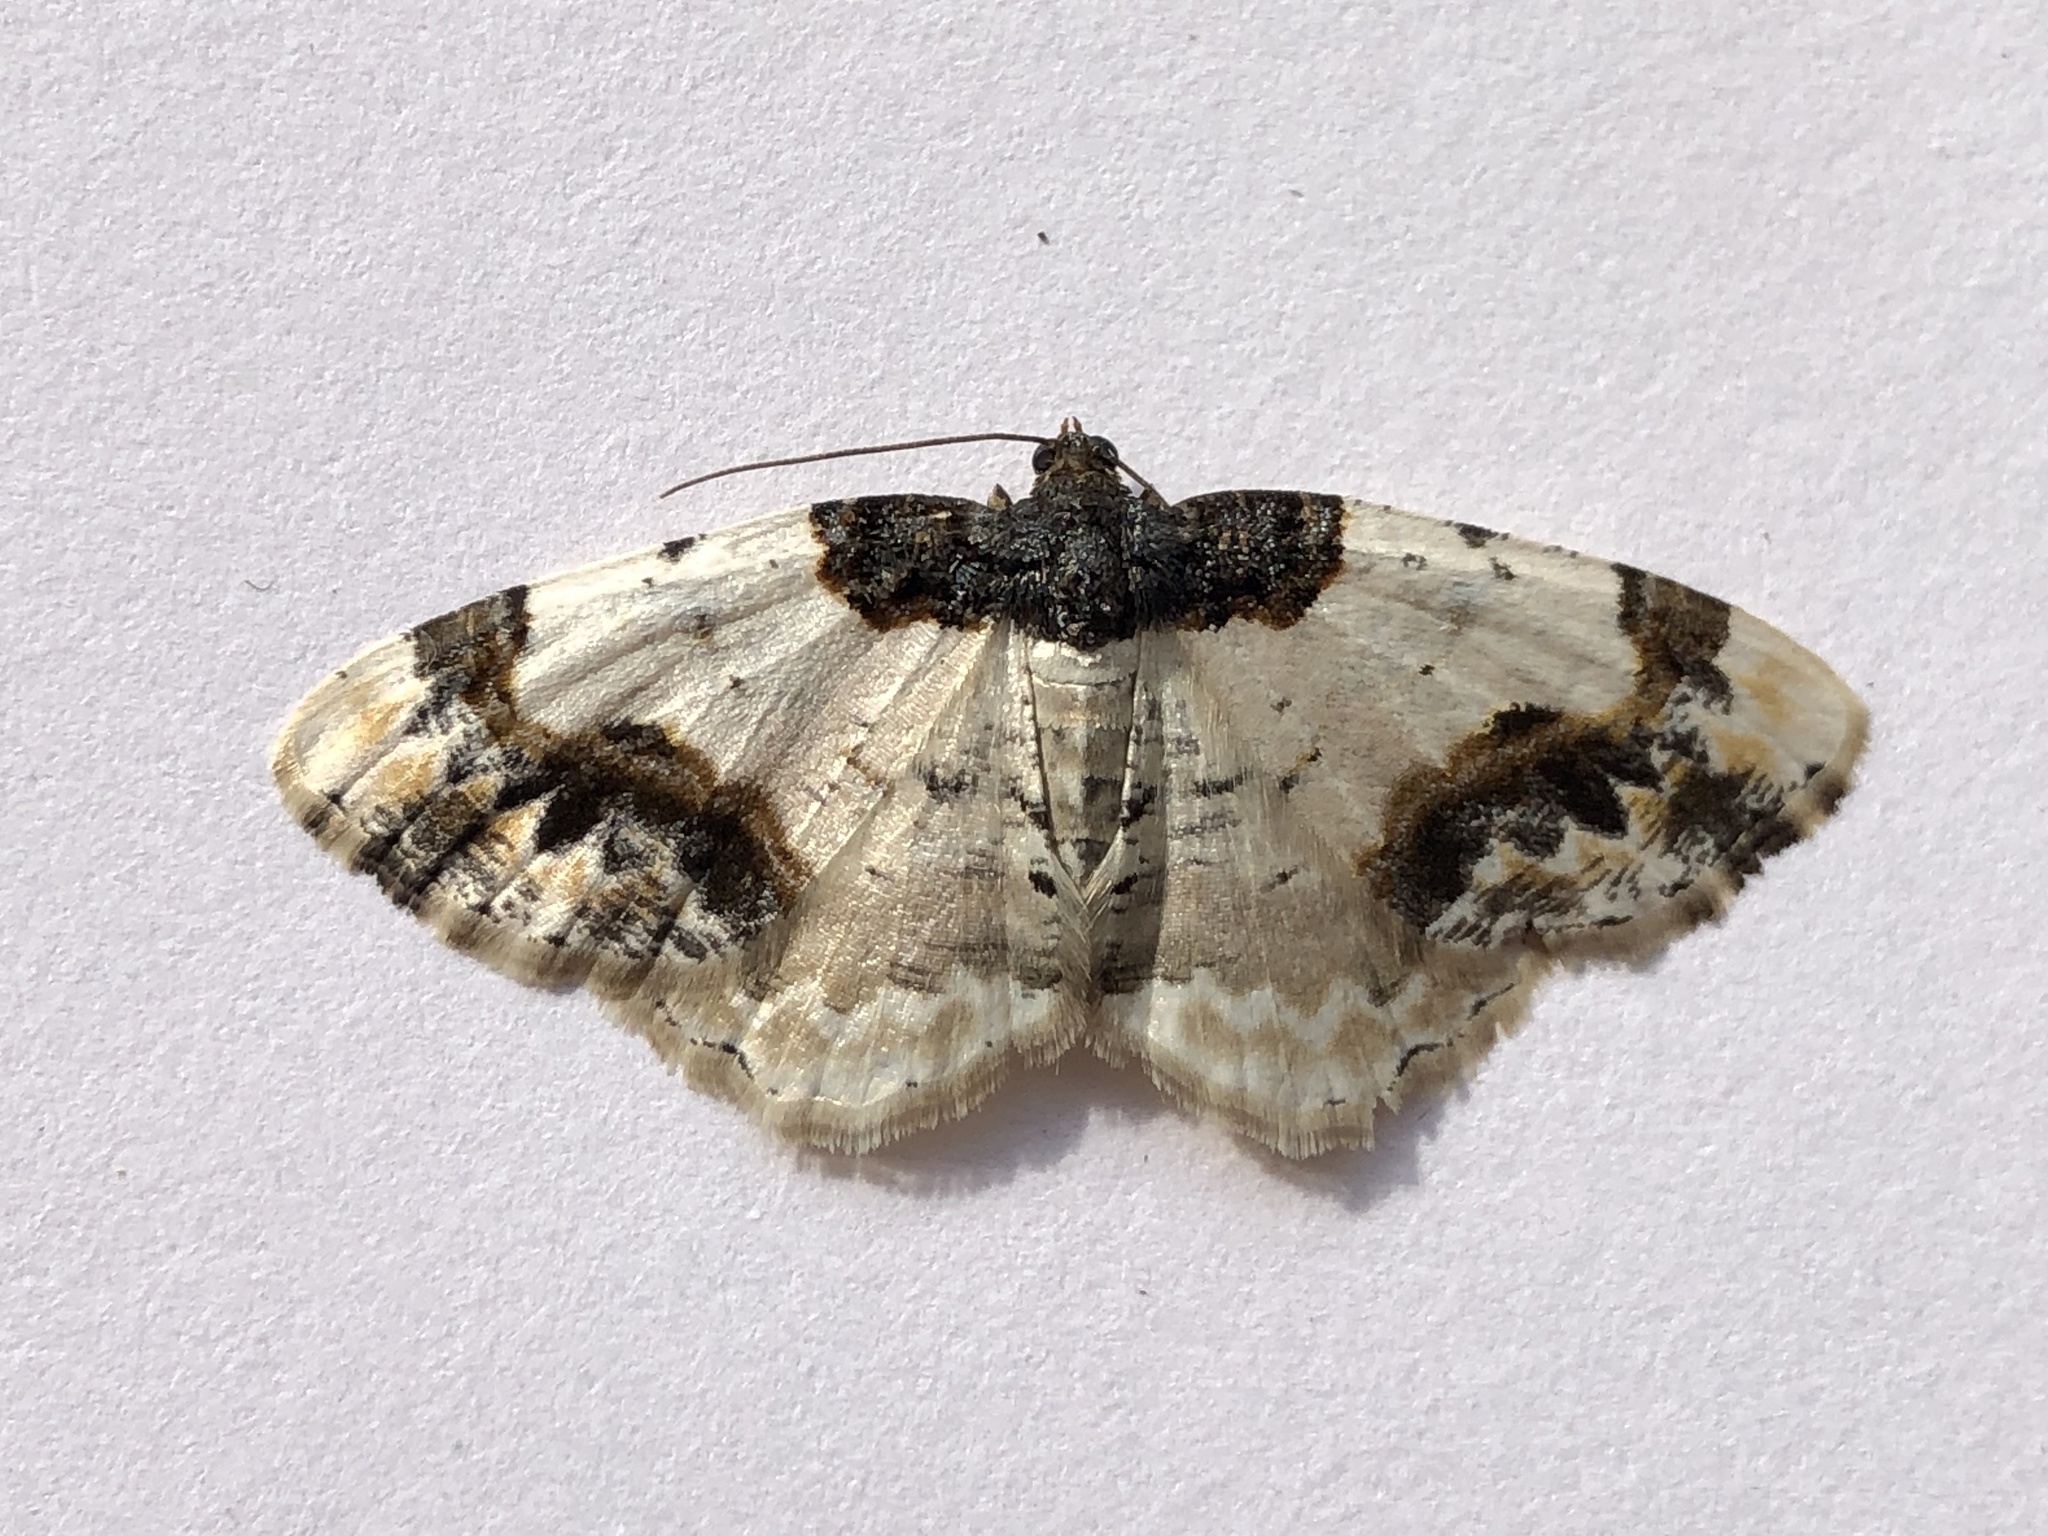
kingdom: Animalia
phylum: Arthropoda
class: Insecta
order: Lepidoptera
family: Geometridae
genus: Ligdia
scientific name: Ligdia adustata
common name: Scorched carpet
